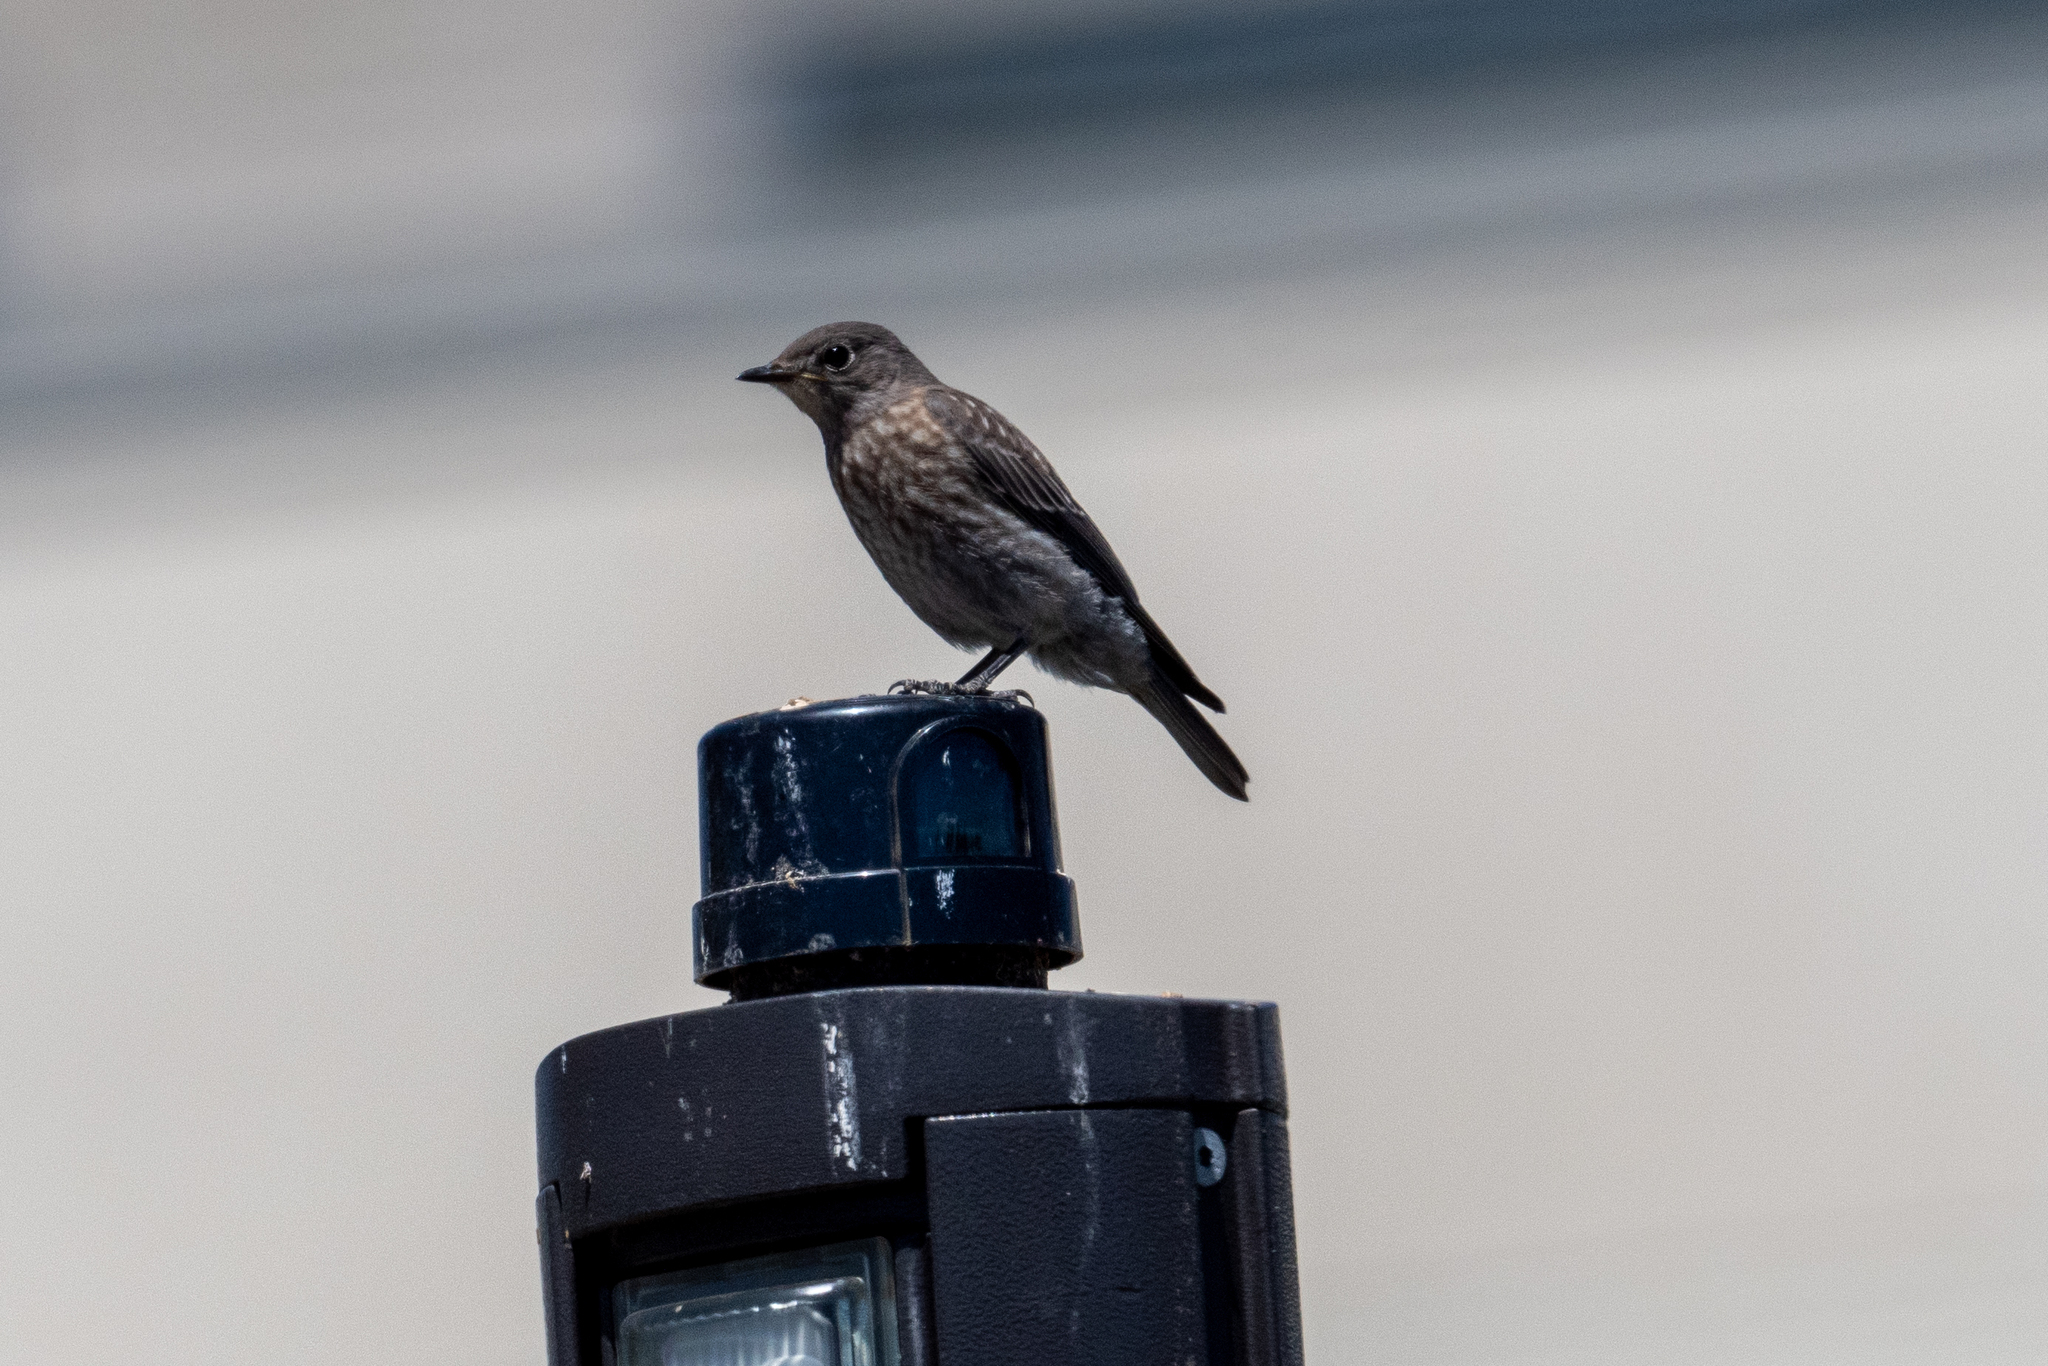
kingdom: Animalia
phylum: Chordata
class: Aves
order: Passeriformes
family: Turdidae
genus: Sialia
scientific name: Sialia mexicana
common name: Western bluebird
